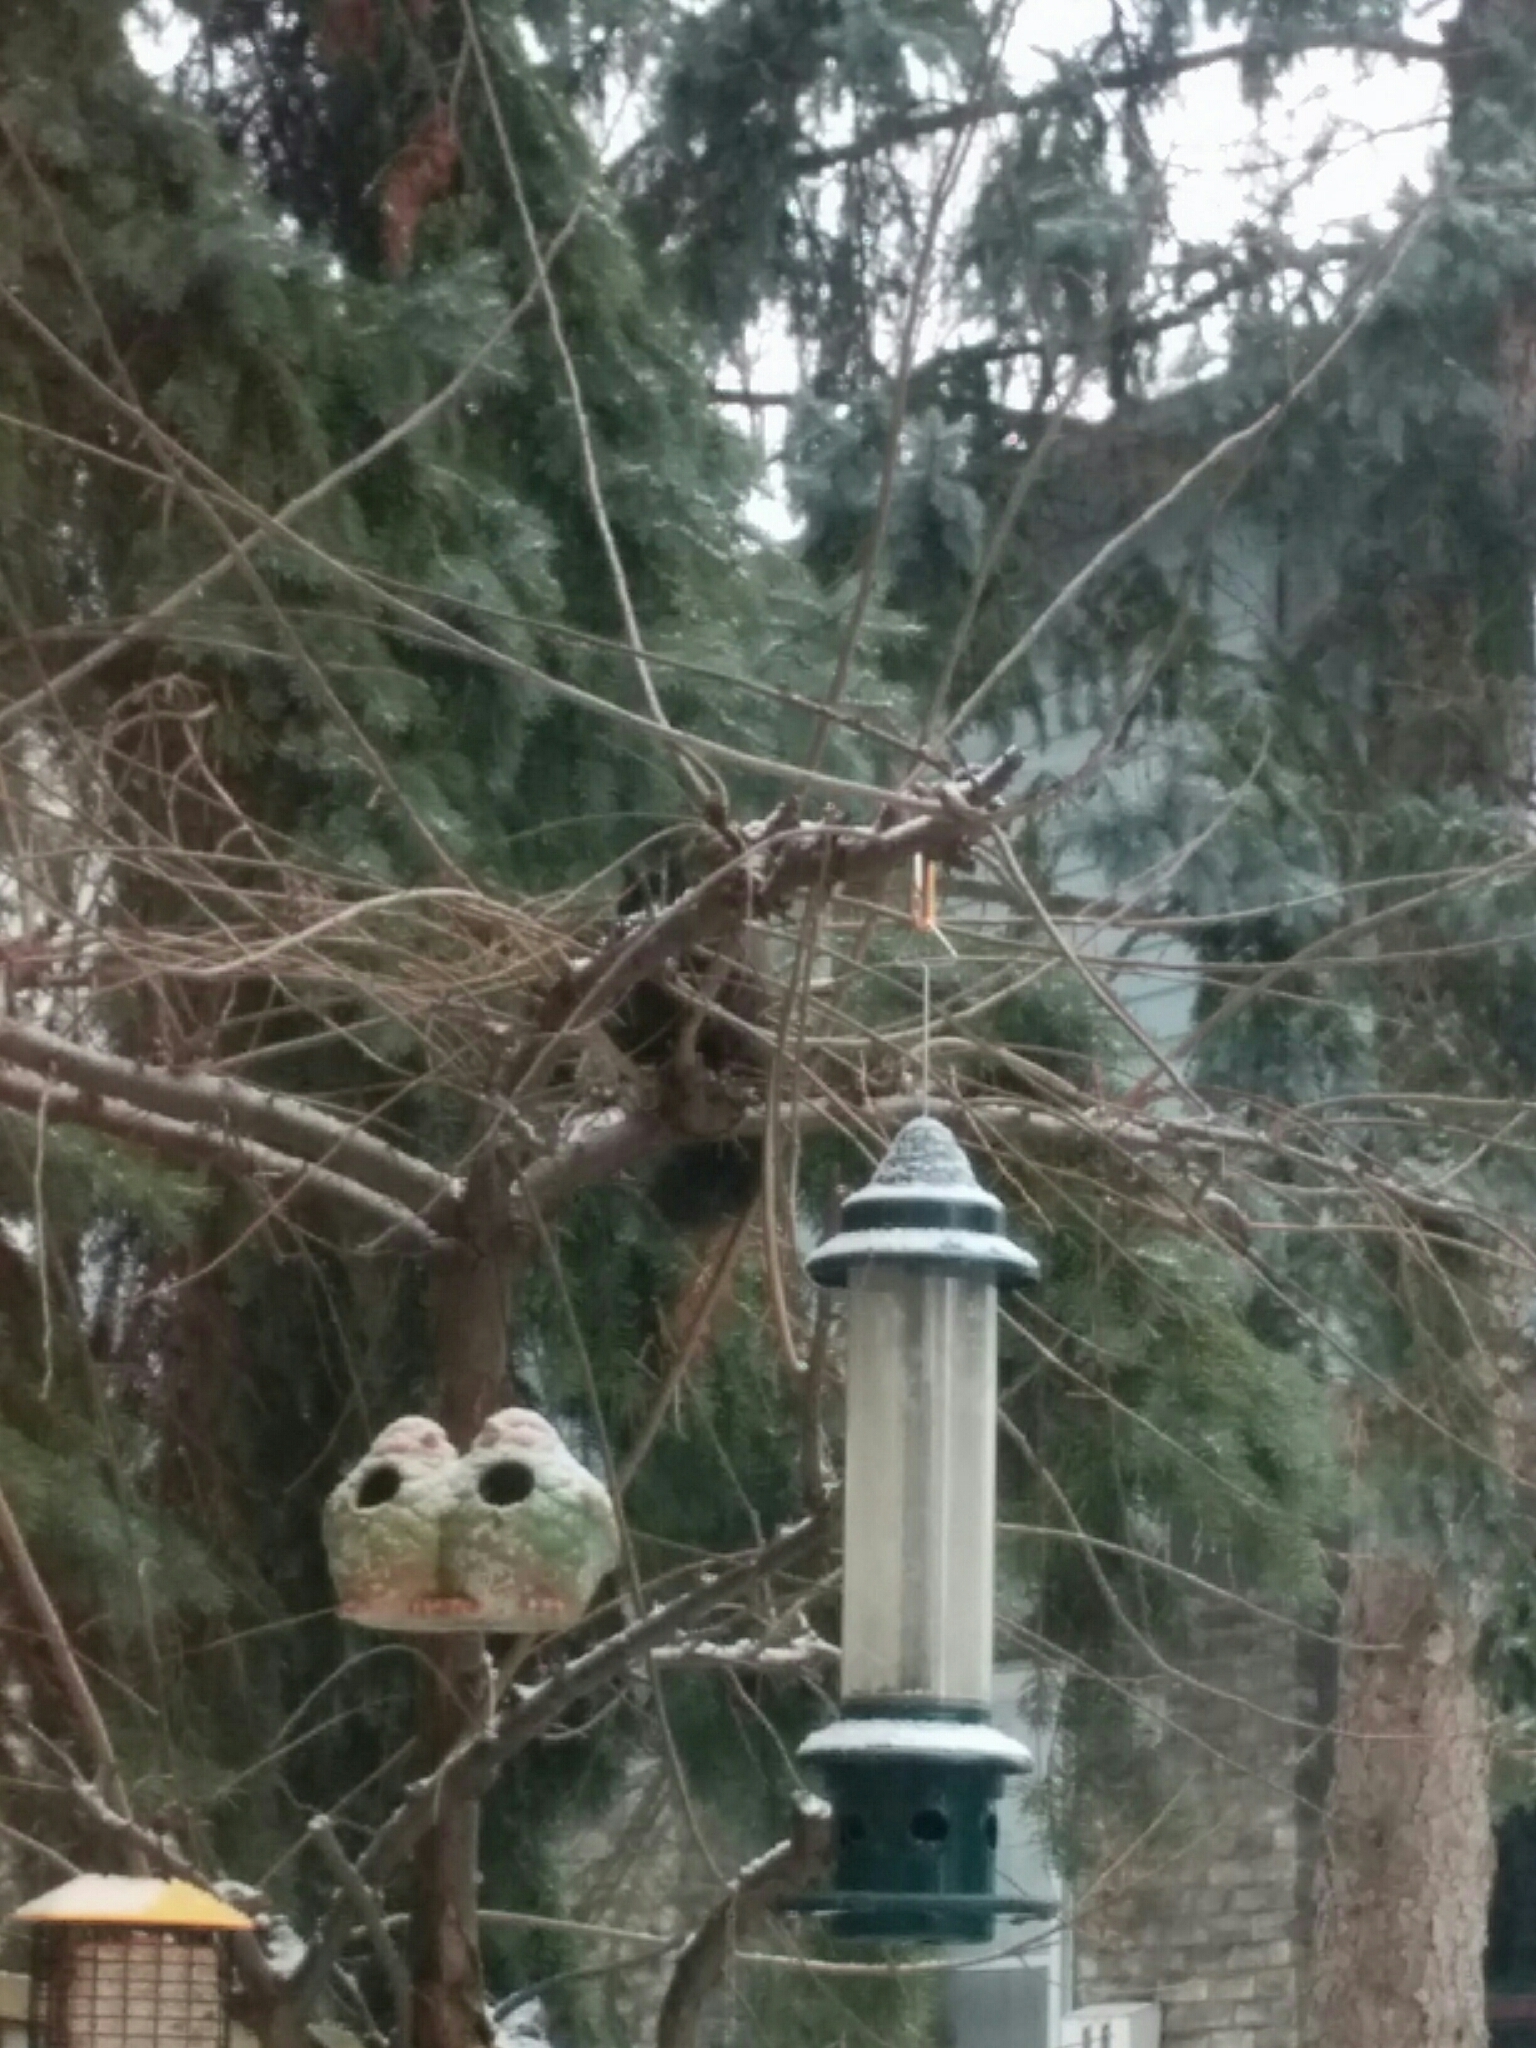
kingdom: Animalia
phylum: Chordata
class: Mammalia
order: Rodentia
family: Sciuridae
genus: Sciurus
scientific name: Sciurus carolinensis
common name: Eastern gray squirrel
